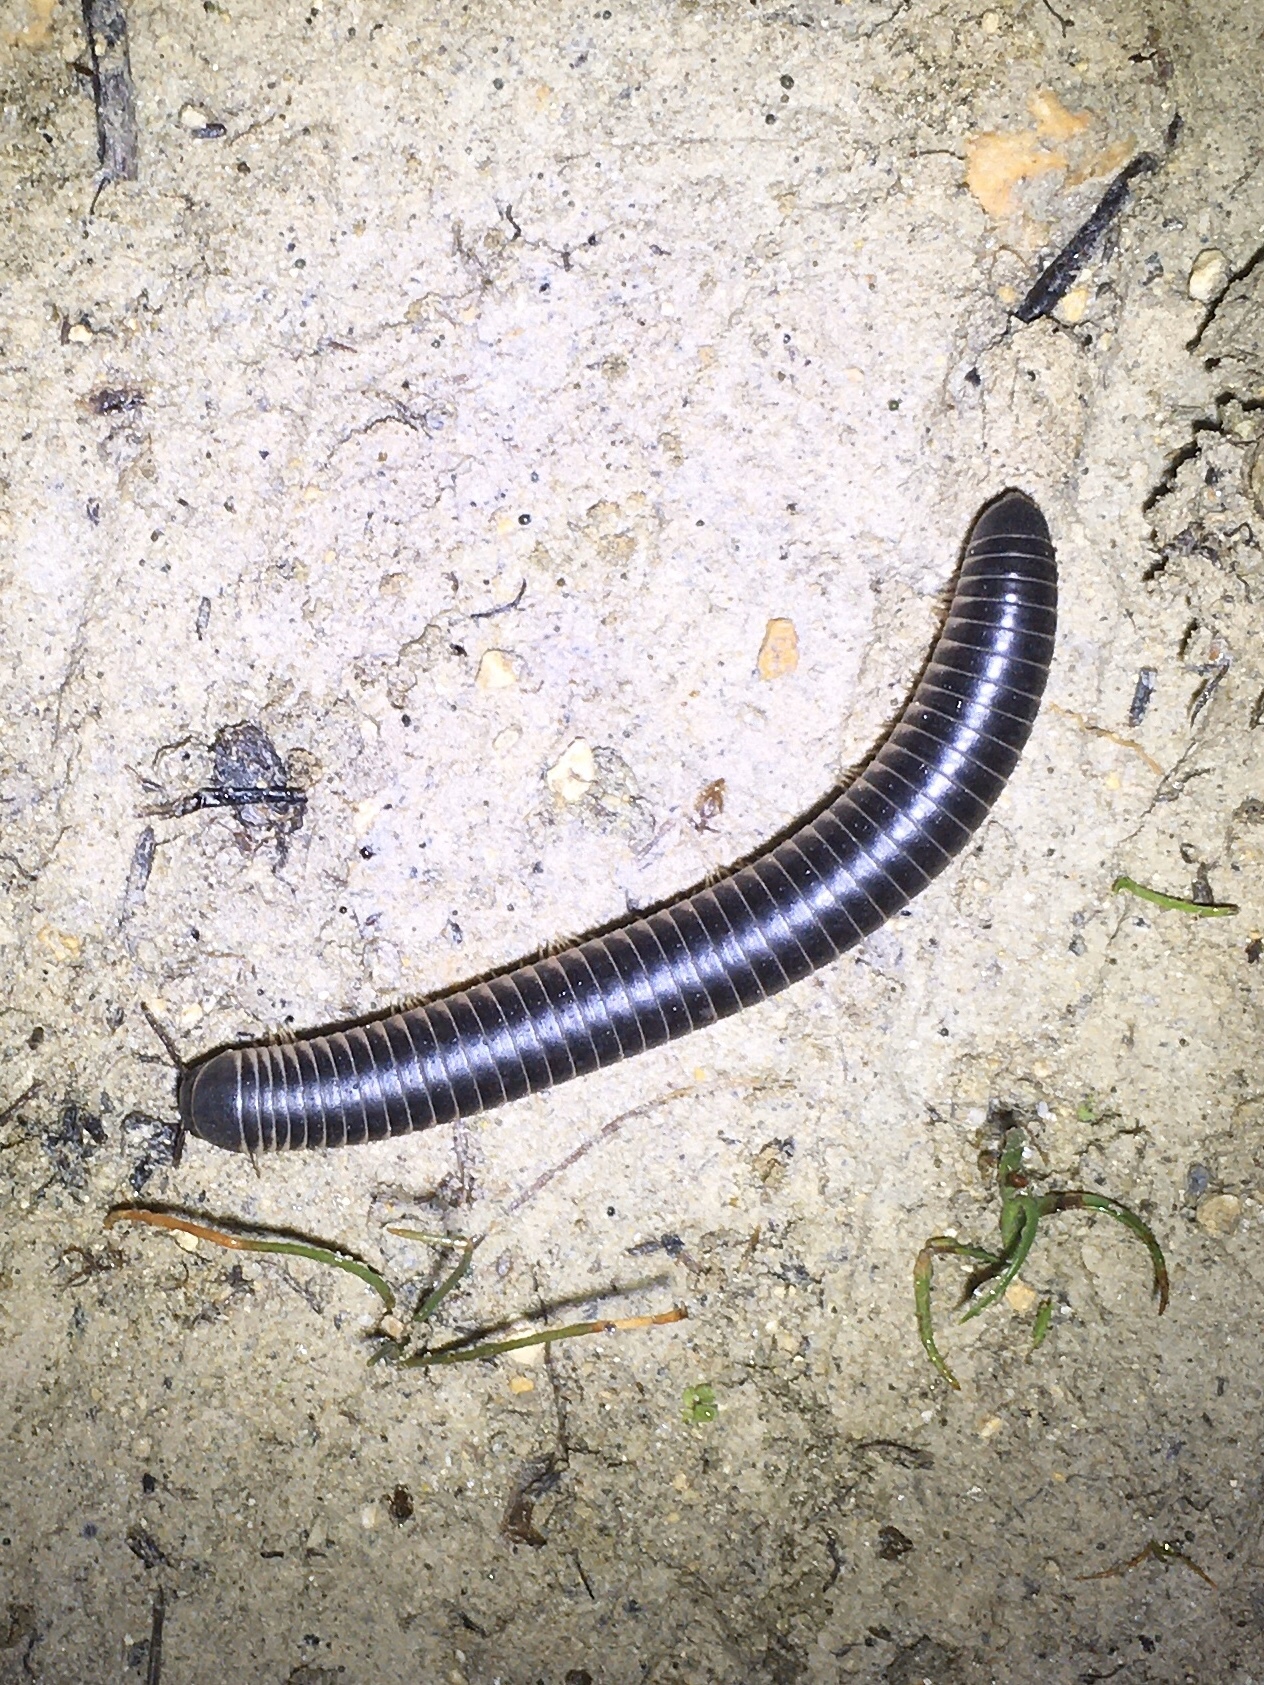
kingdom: Animalia
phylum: Arthropoda
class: Diplopoda
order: Spirobolida
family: Spirobolidae
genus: Chicobolus
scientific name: Chicobolus spinigerus
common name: Florida ivory millipede
